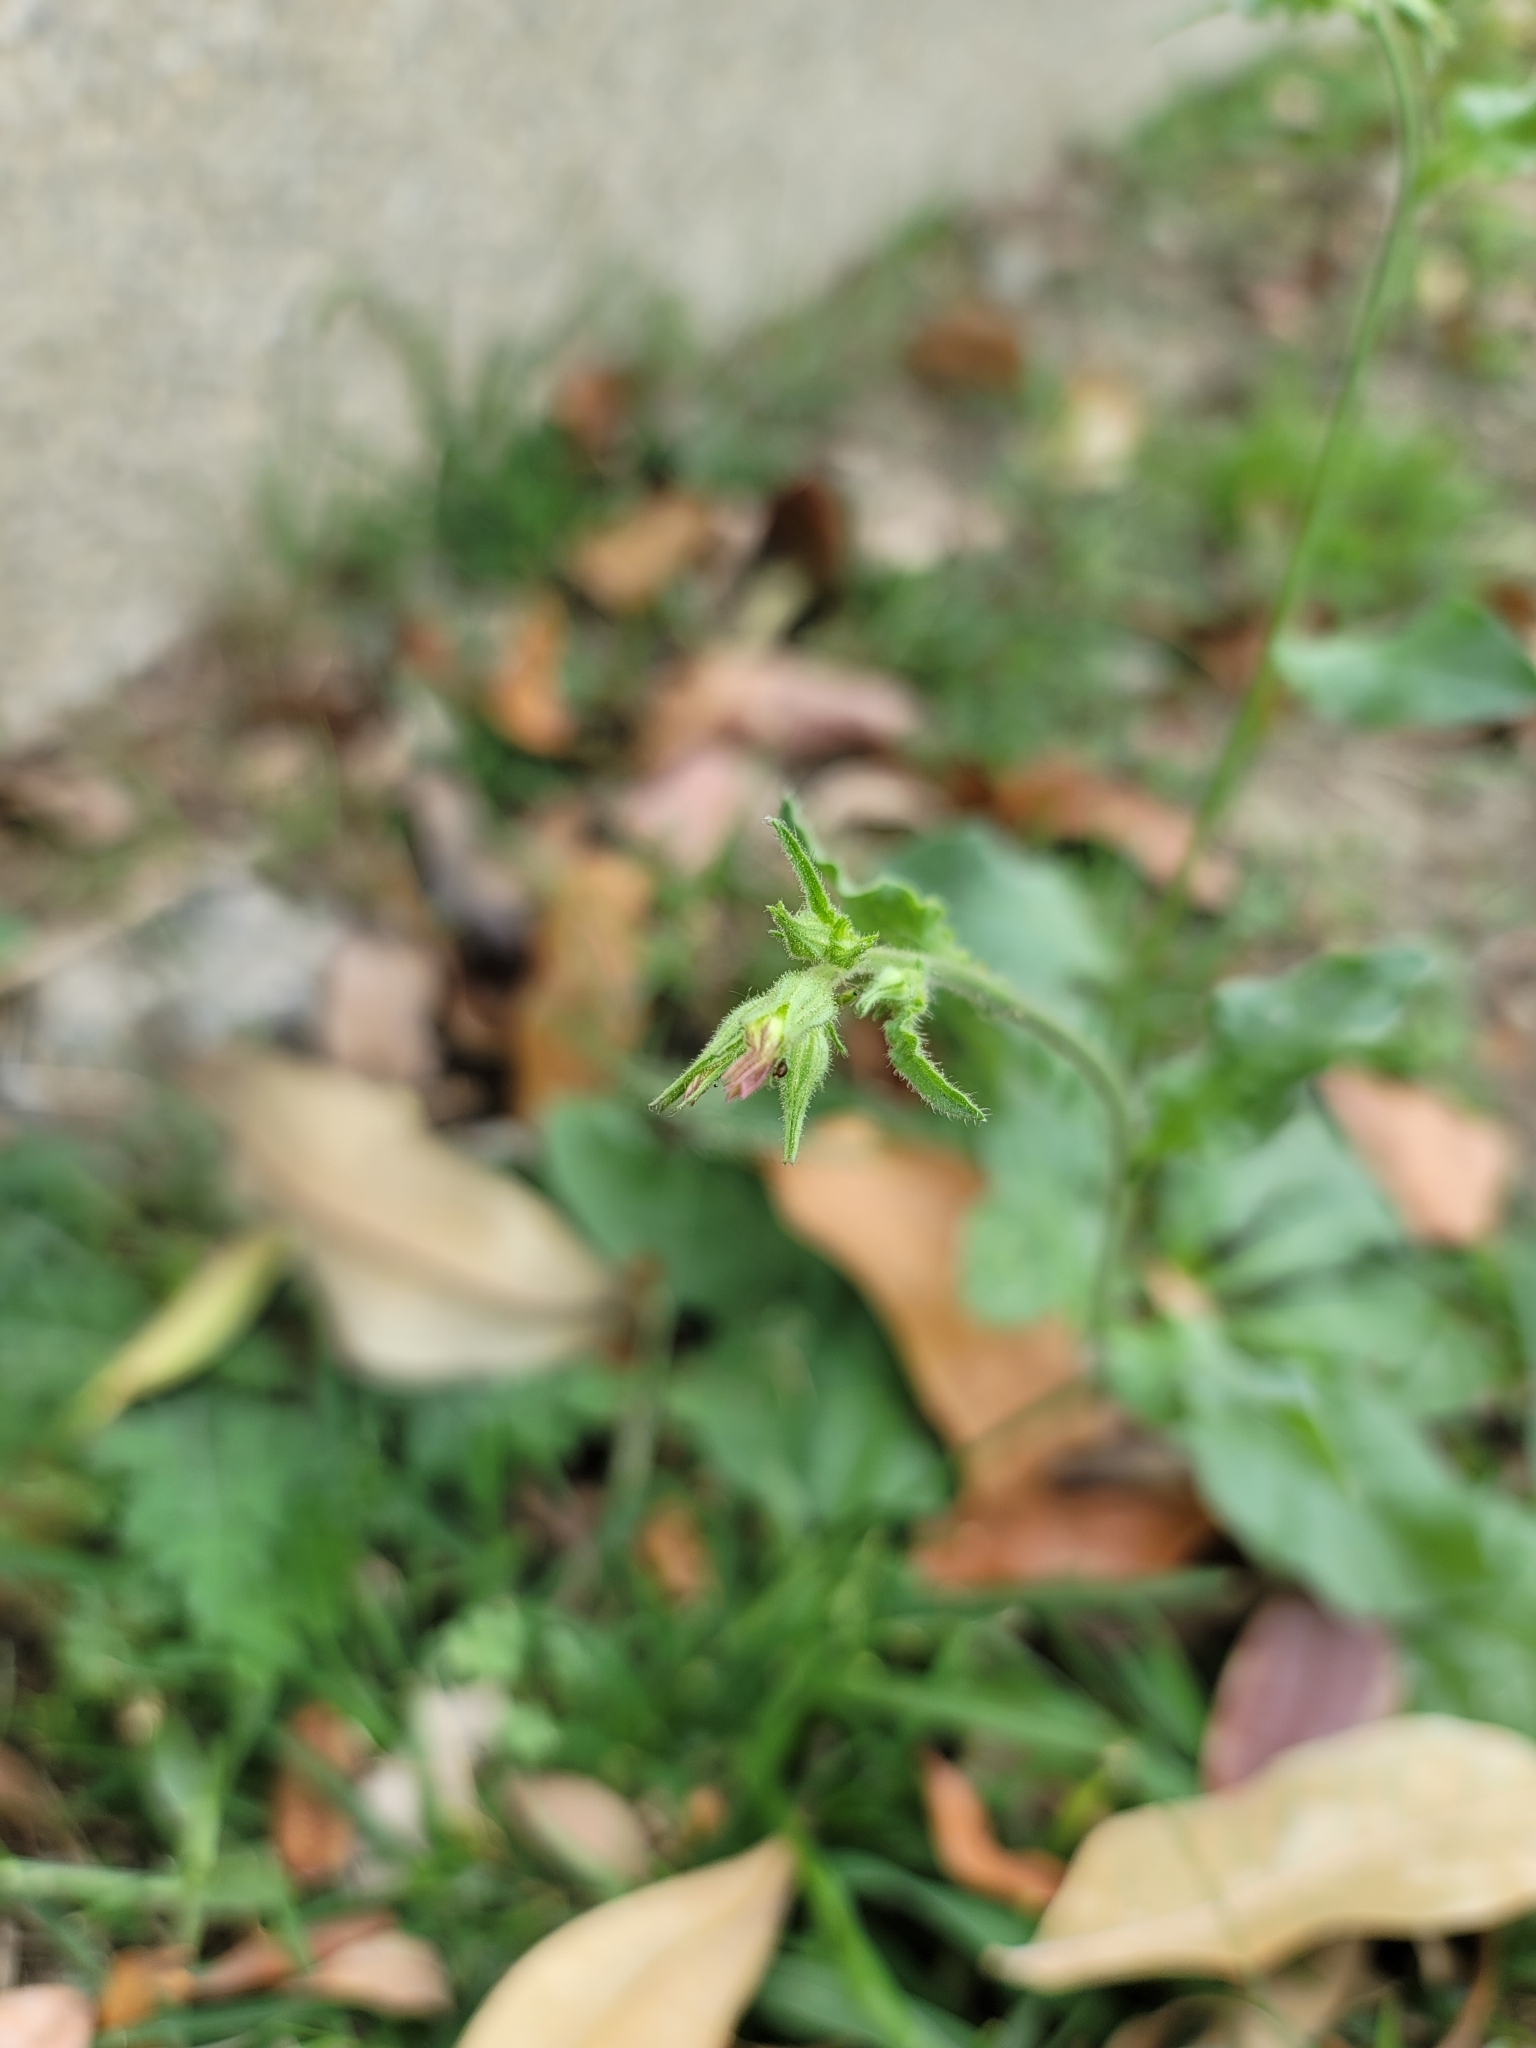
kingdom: Plantae
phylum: Tracheophyta
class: Magnoliopsida
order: Solanales
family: Solanaceae
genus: Nicotiana
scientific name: Nicotiana plumbaginifolia
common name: Tex-mex tobacco
